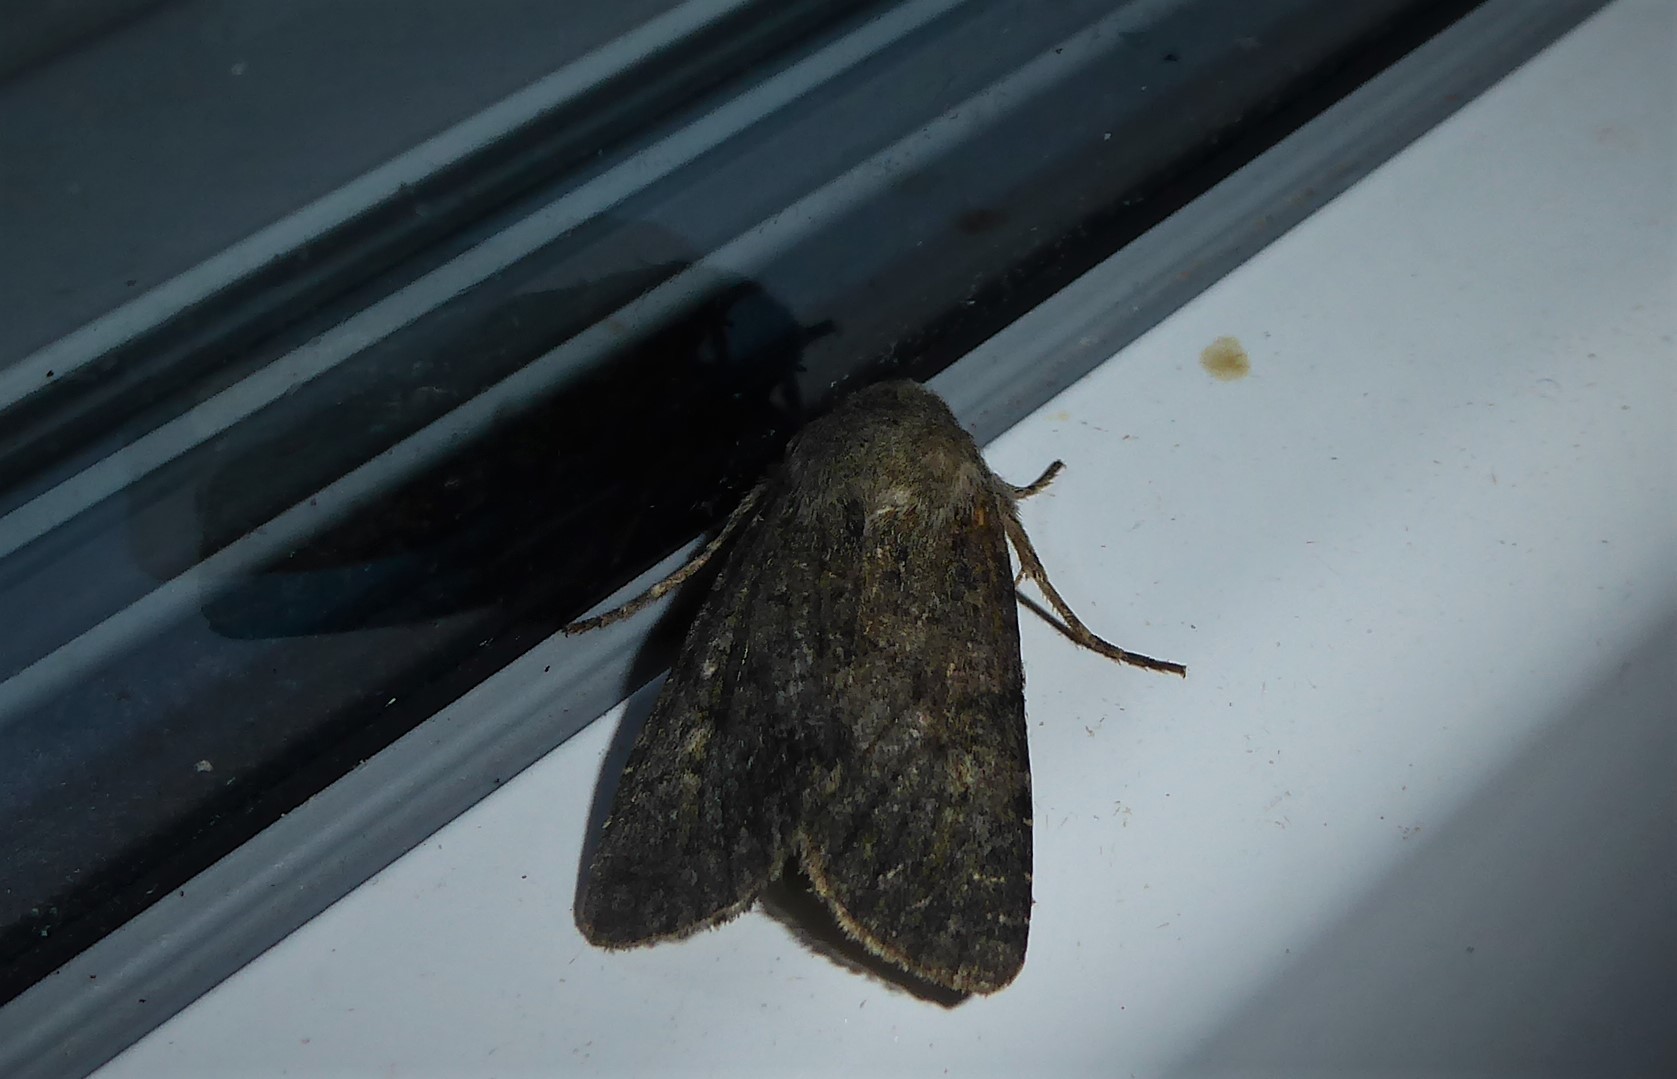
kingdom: Animalia
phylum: Arthropoda
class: Insecta
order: Lepidoptera
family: Noctuidae
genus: Ichneutica
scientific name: Ichneutica moderata
